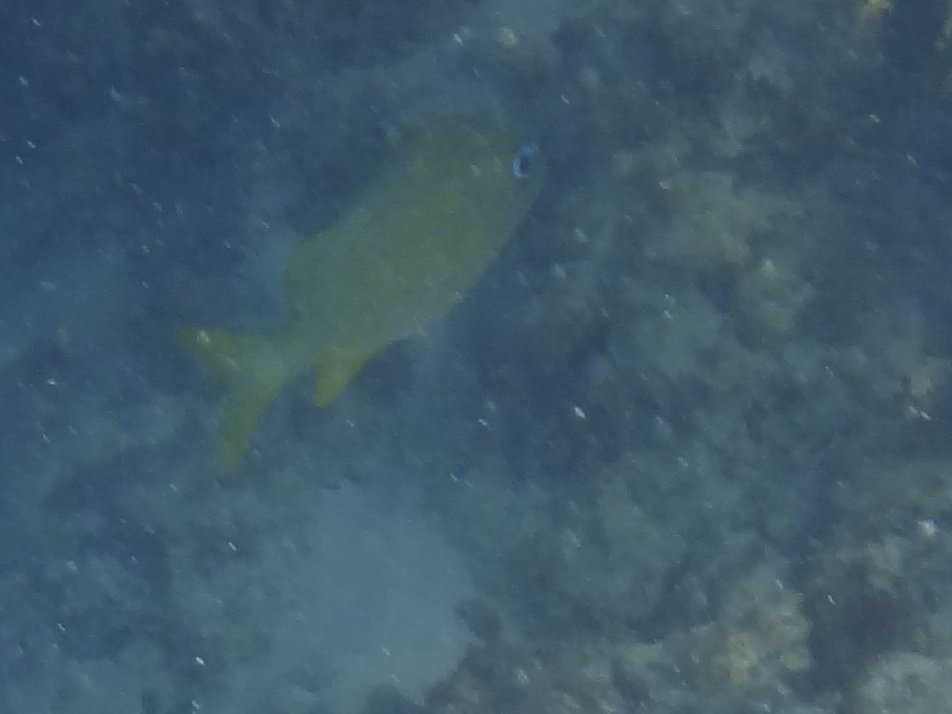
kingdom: Animalia
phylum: Chordata
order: Perciformes
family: Haemulidae
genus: Haemulon
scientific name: Haemulon flavolineatum
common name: French grunt
